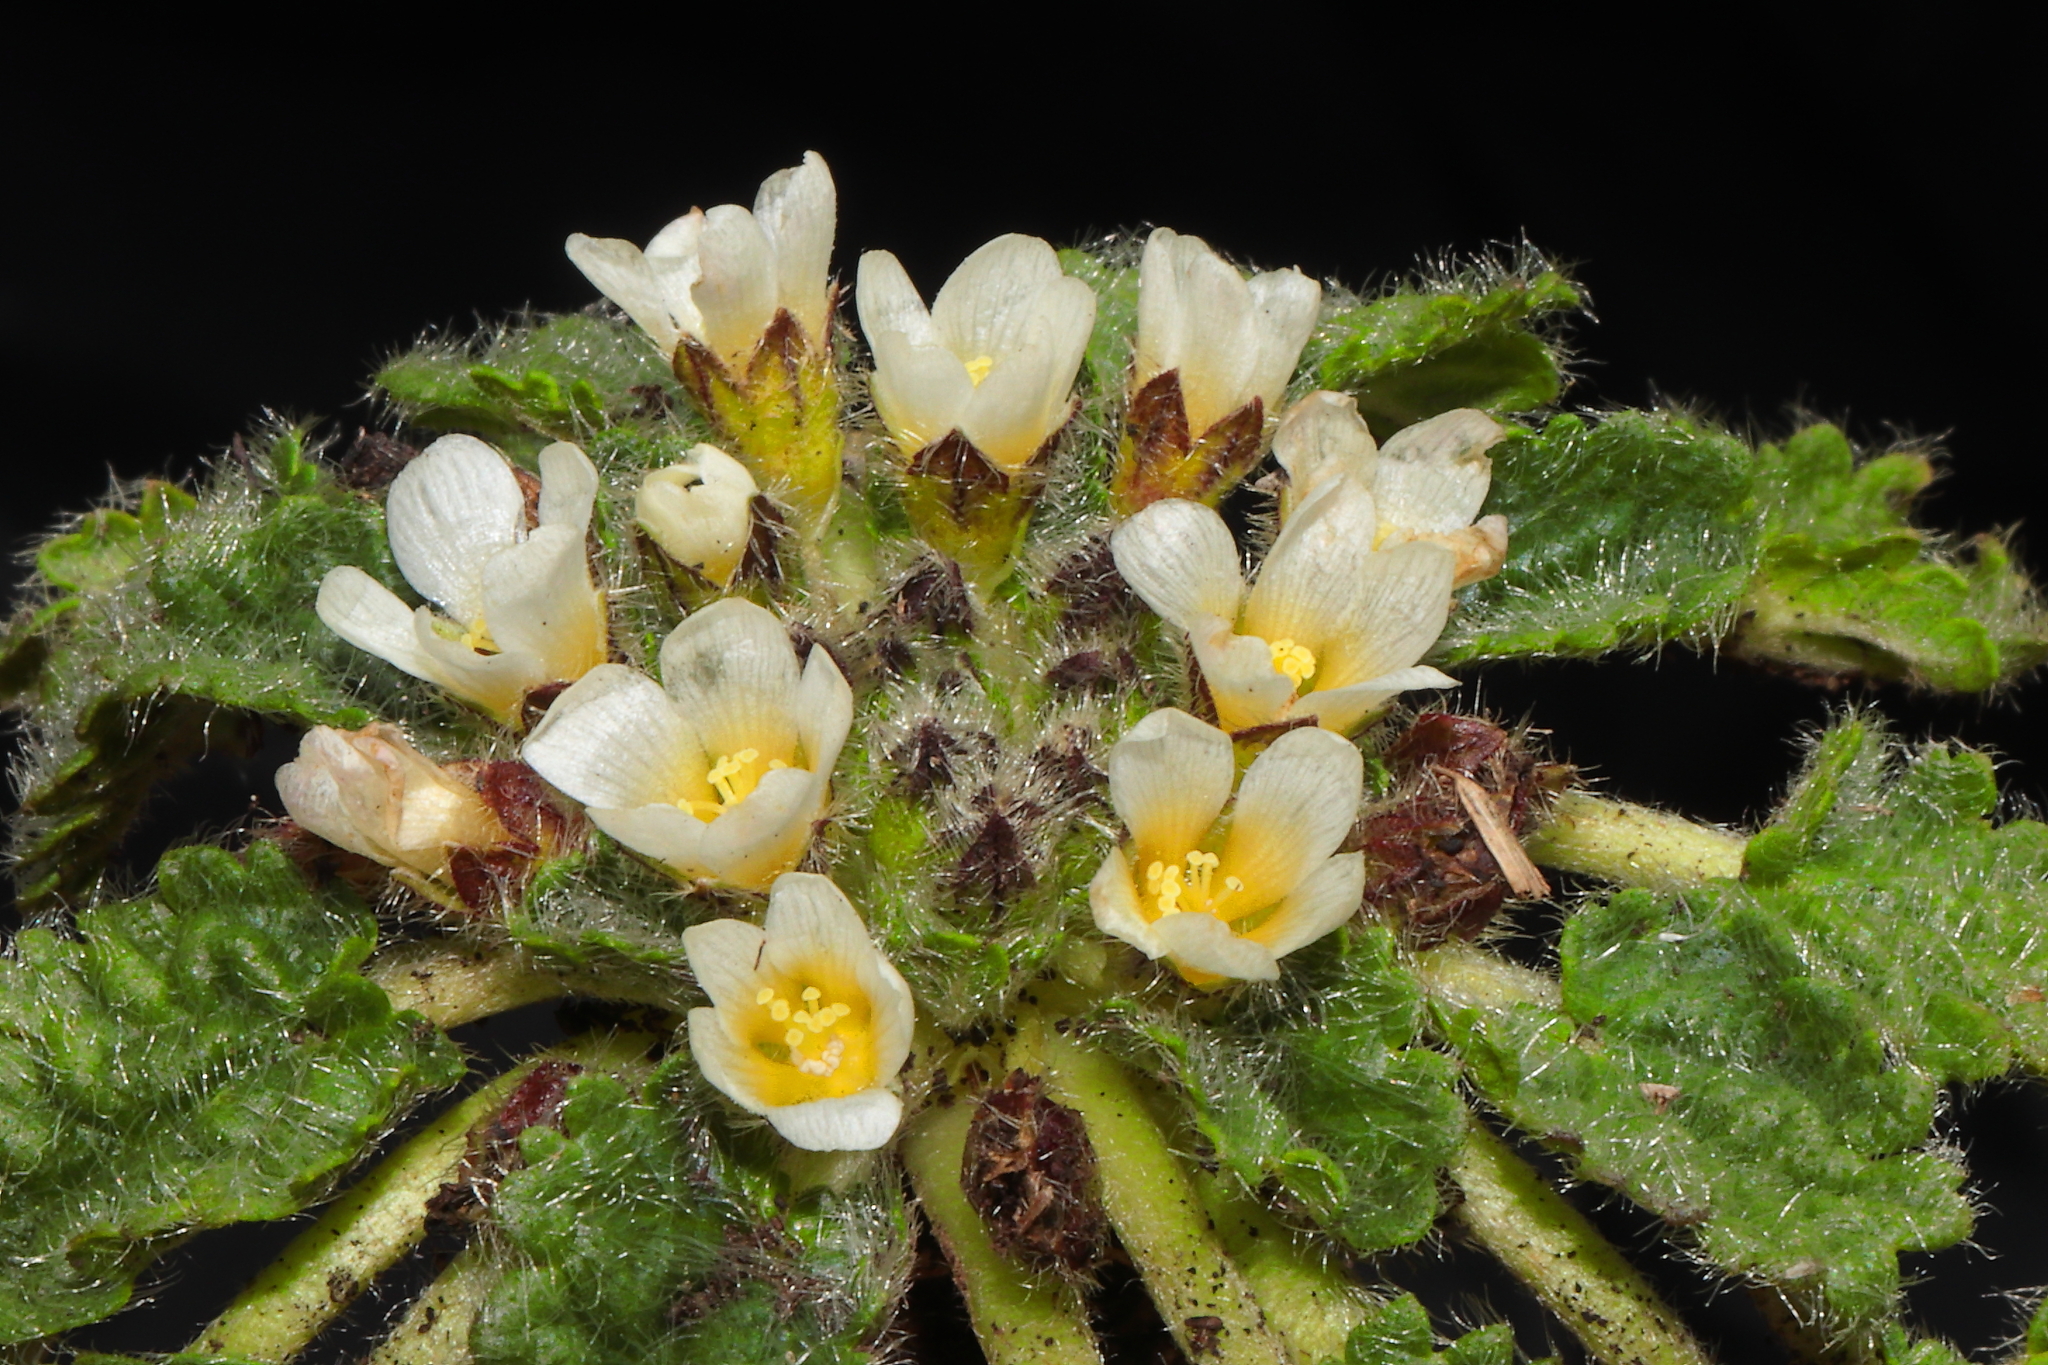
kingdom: Plantae
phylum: Tracheophyta
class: Magnoliopsida
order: Malvales
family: Malvaceae
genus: Acaulimalva
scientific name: Acaulimalva crenata
